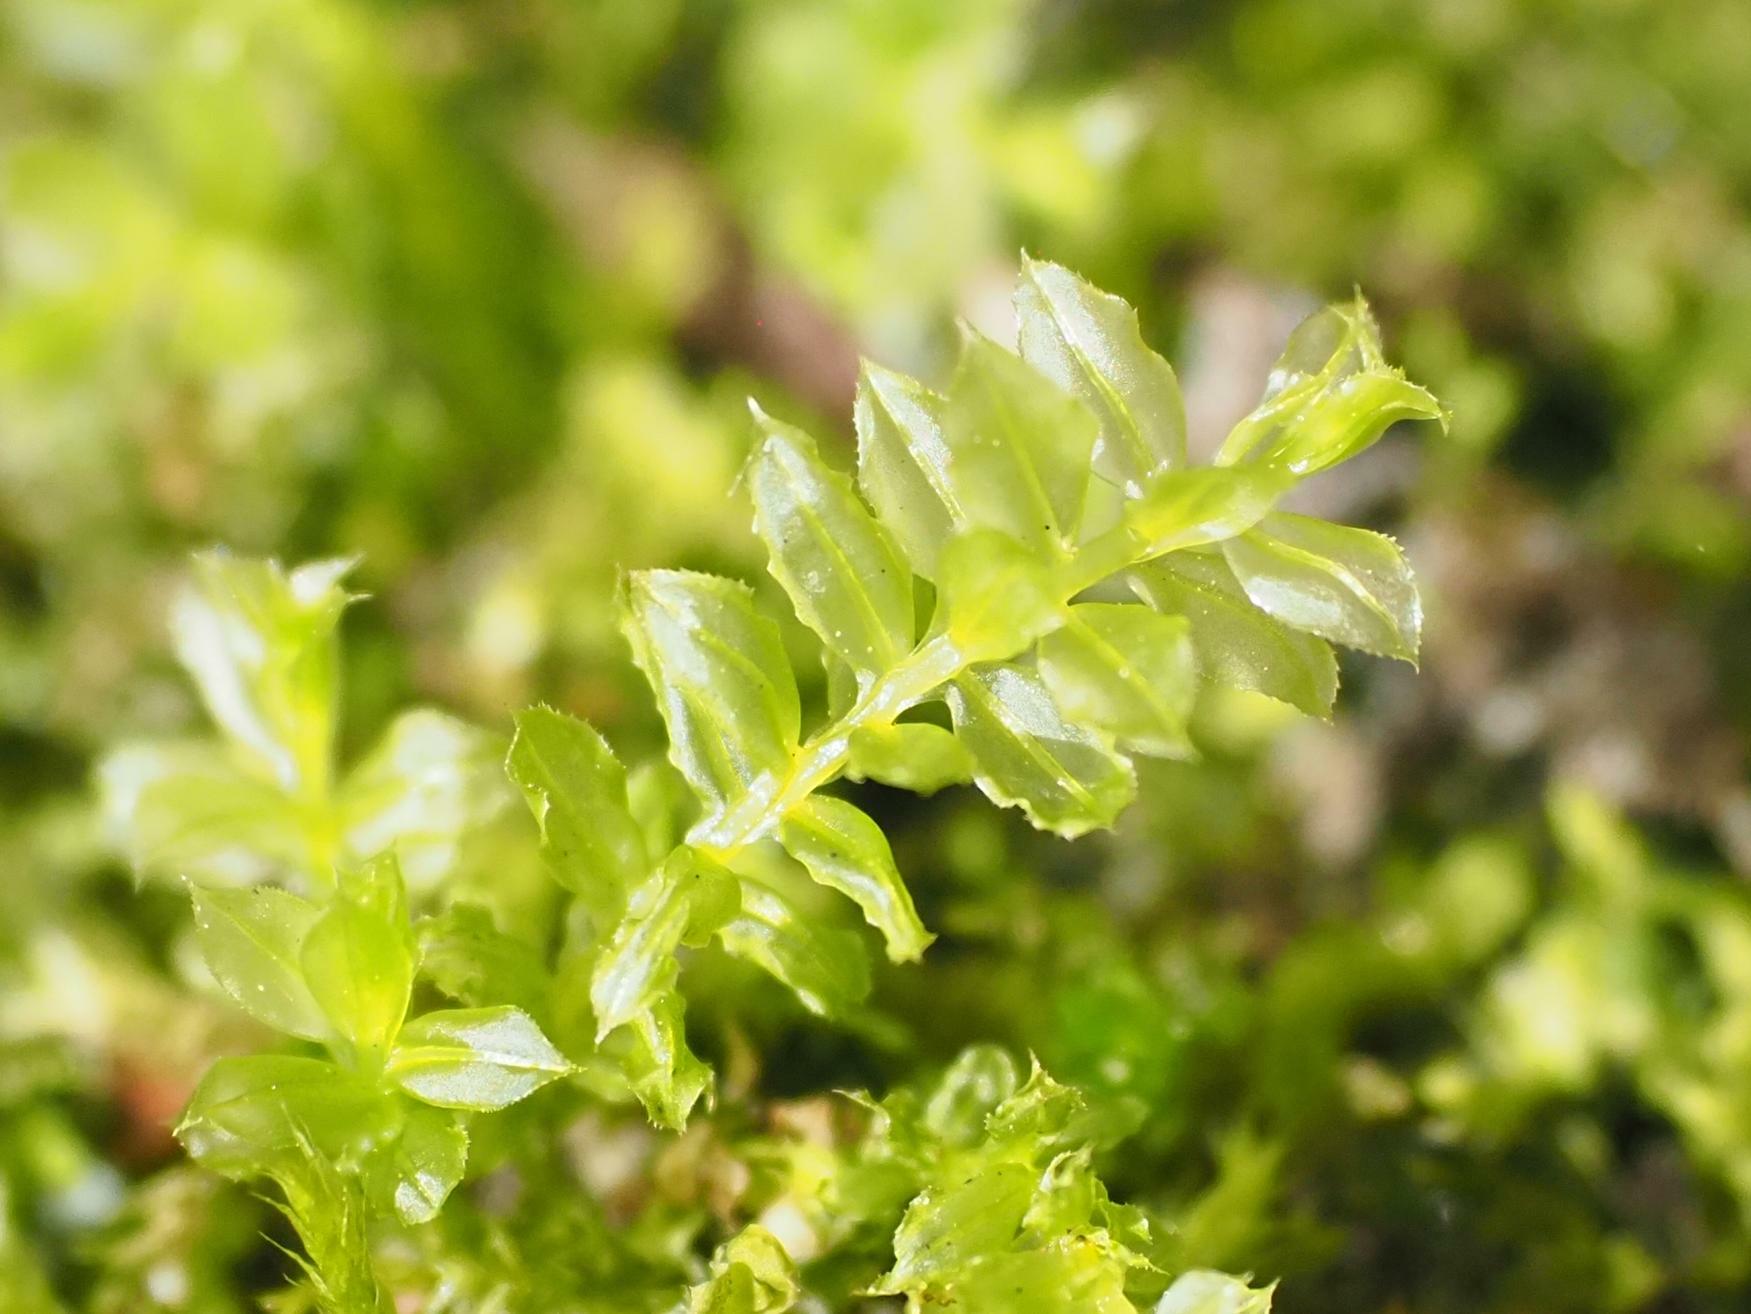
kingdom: Plantae
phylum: Bryophyta
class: Bryopsida
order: Bryales
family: Mniaceae
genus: Plagiomnium
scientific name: Plagiomnium cuspidatum
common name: Woodsy leafy moss
